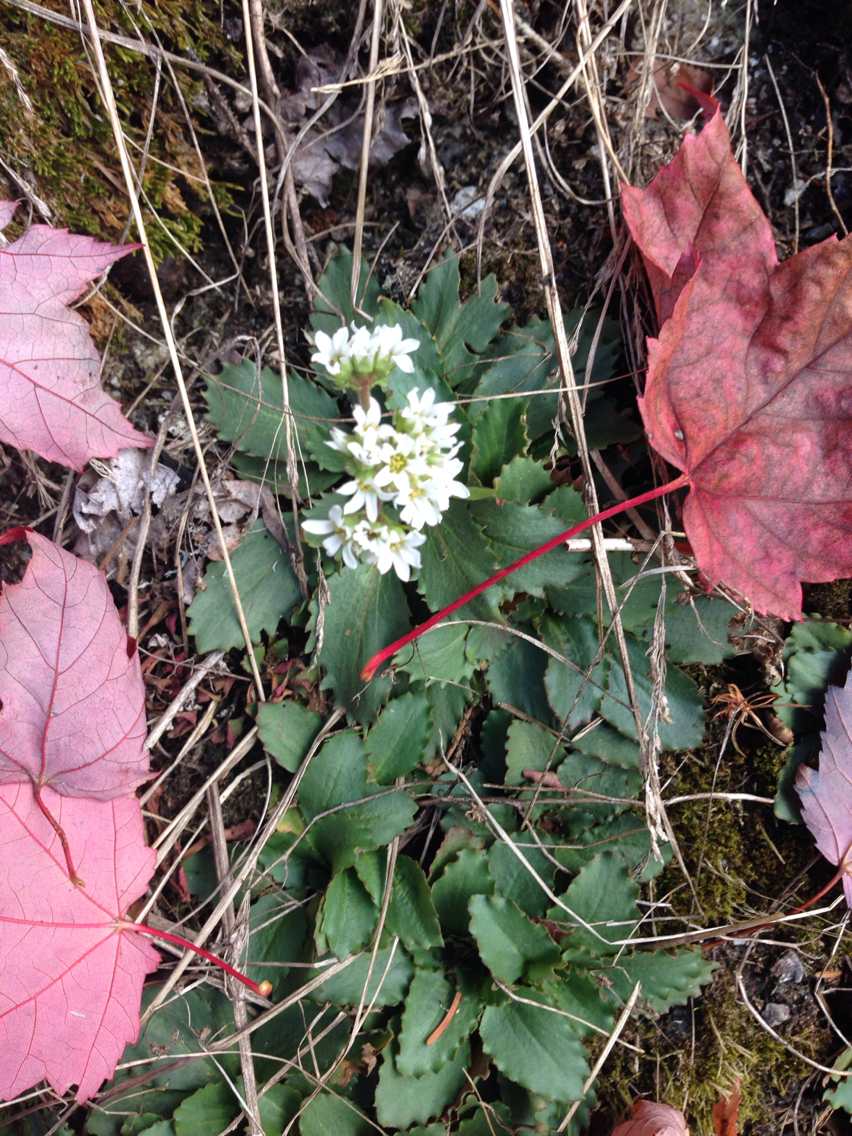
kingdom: Plantae
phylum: Tracheophyta
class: Magnoliopsida
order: Saxifragales
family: Saxifragaceae
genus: Micranthes
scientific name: Micranthes virginiensis
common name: Early saxifrage
